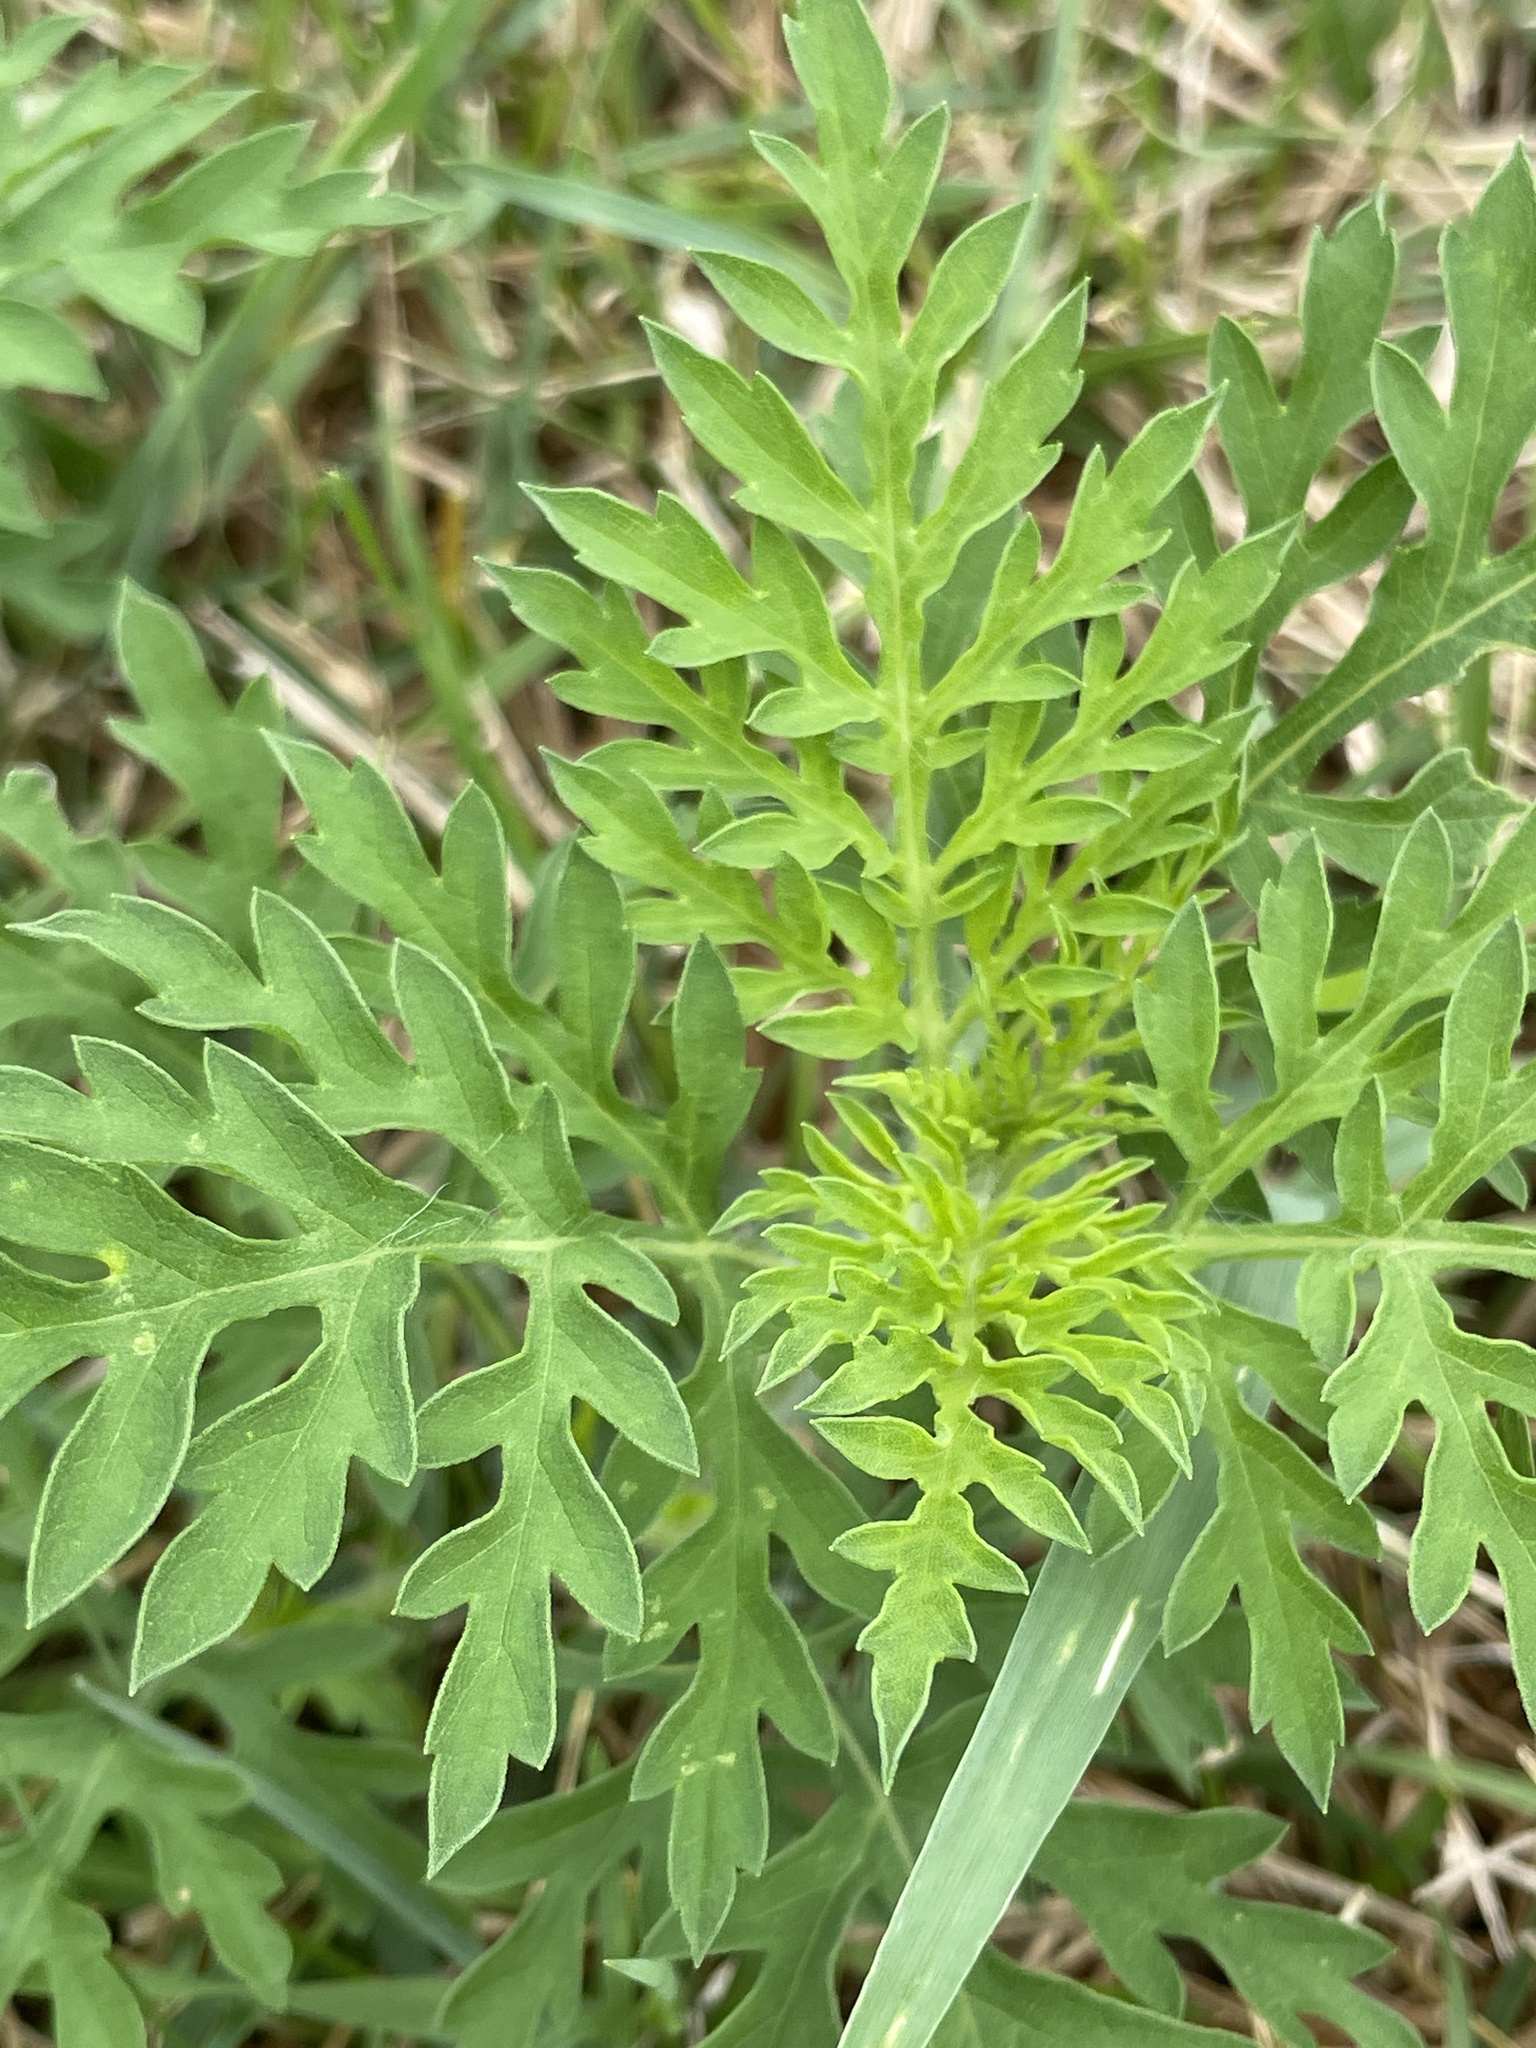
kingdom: Plantae
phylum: Tracheophyta
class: Magnoliopsida
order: Asterales
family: Asteraceae
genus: Ambrosia
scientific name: Ambrosia artemisiifolia
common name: Annual ragweed
